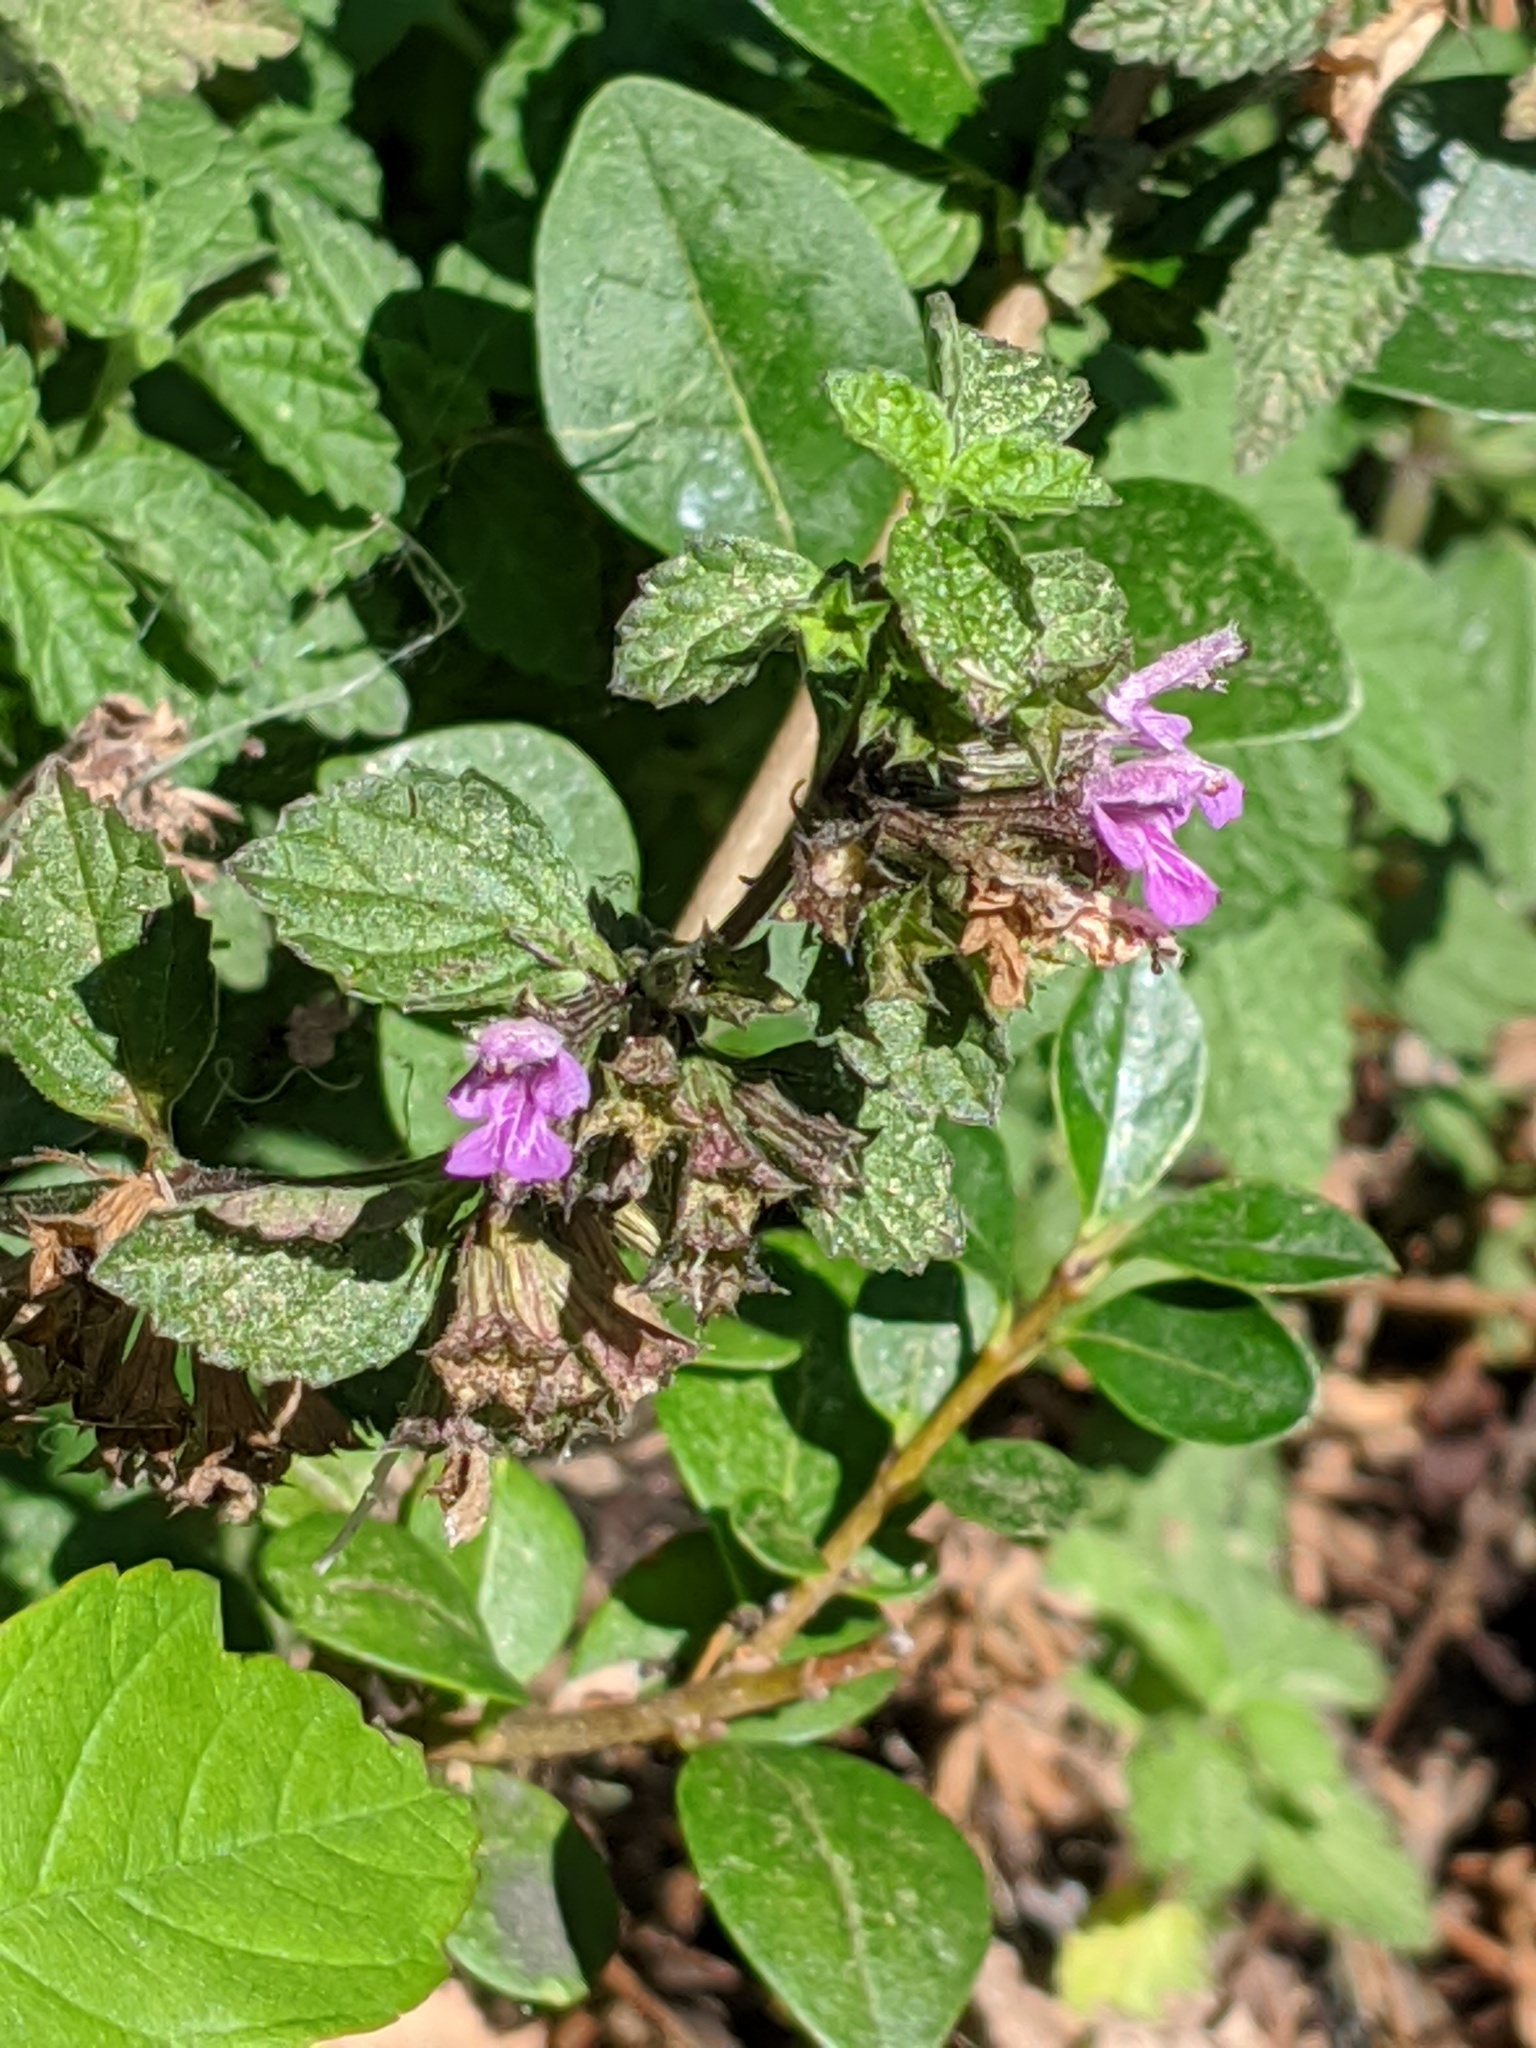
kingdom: Plantae
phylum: Tracheophyta
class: Magnoliopsida
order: Lamiales
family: Lamiaceae
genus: Ballota
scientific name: Ballota nigra
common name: Black horehound
